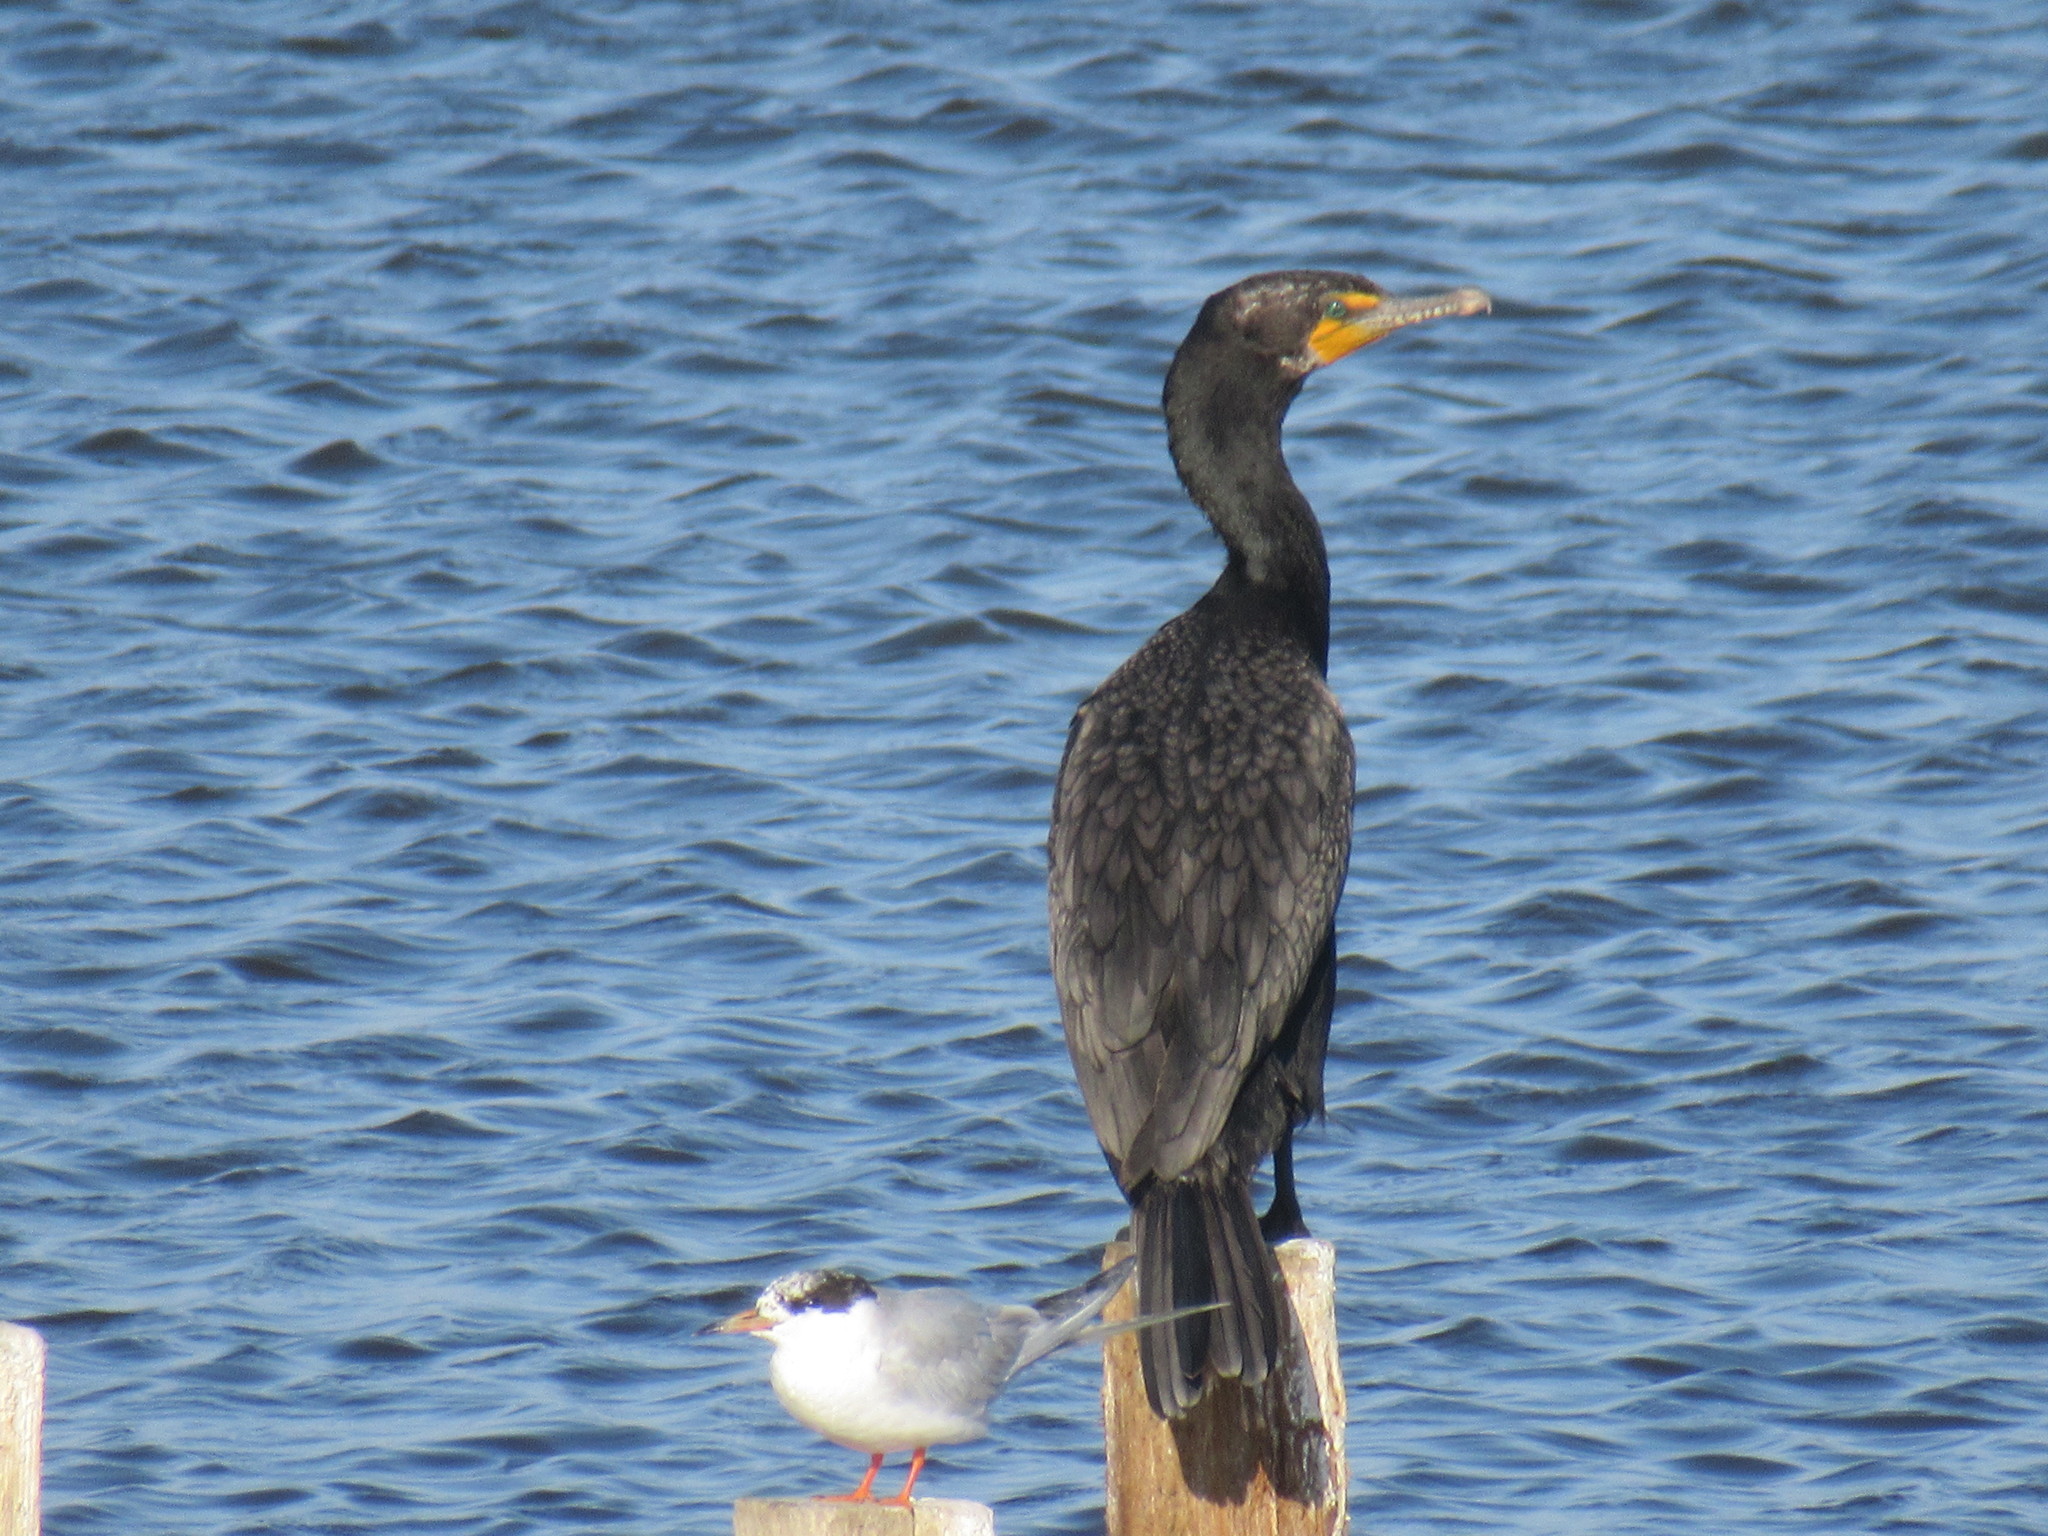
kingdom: Animalia
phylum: Chordata
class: Aves
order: Charadriiformes
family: Laridae
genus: Sterna
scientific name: Sterna forsteri
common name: Forster's tern
